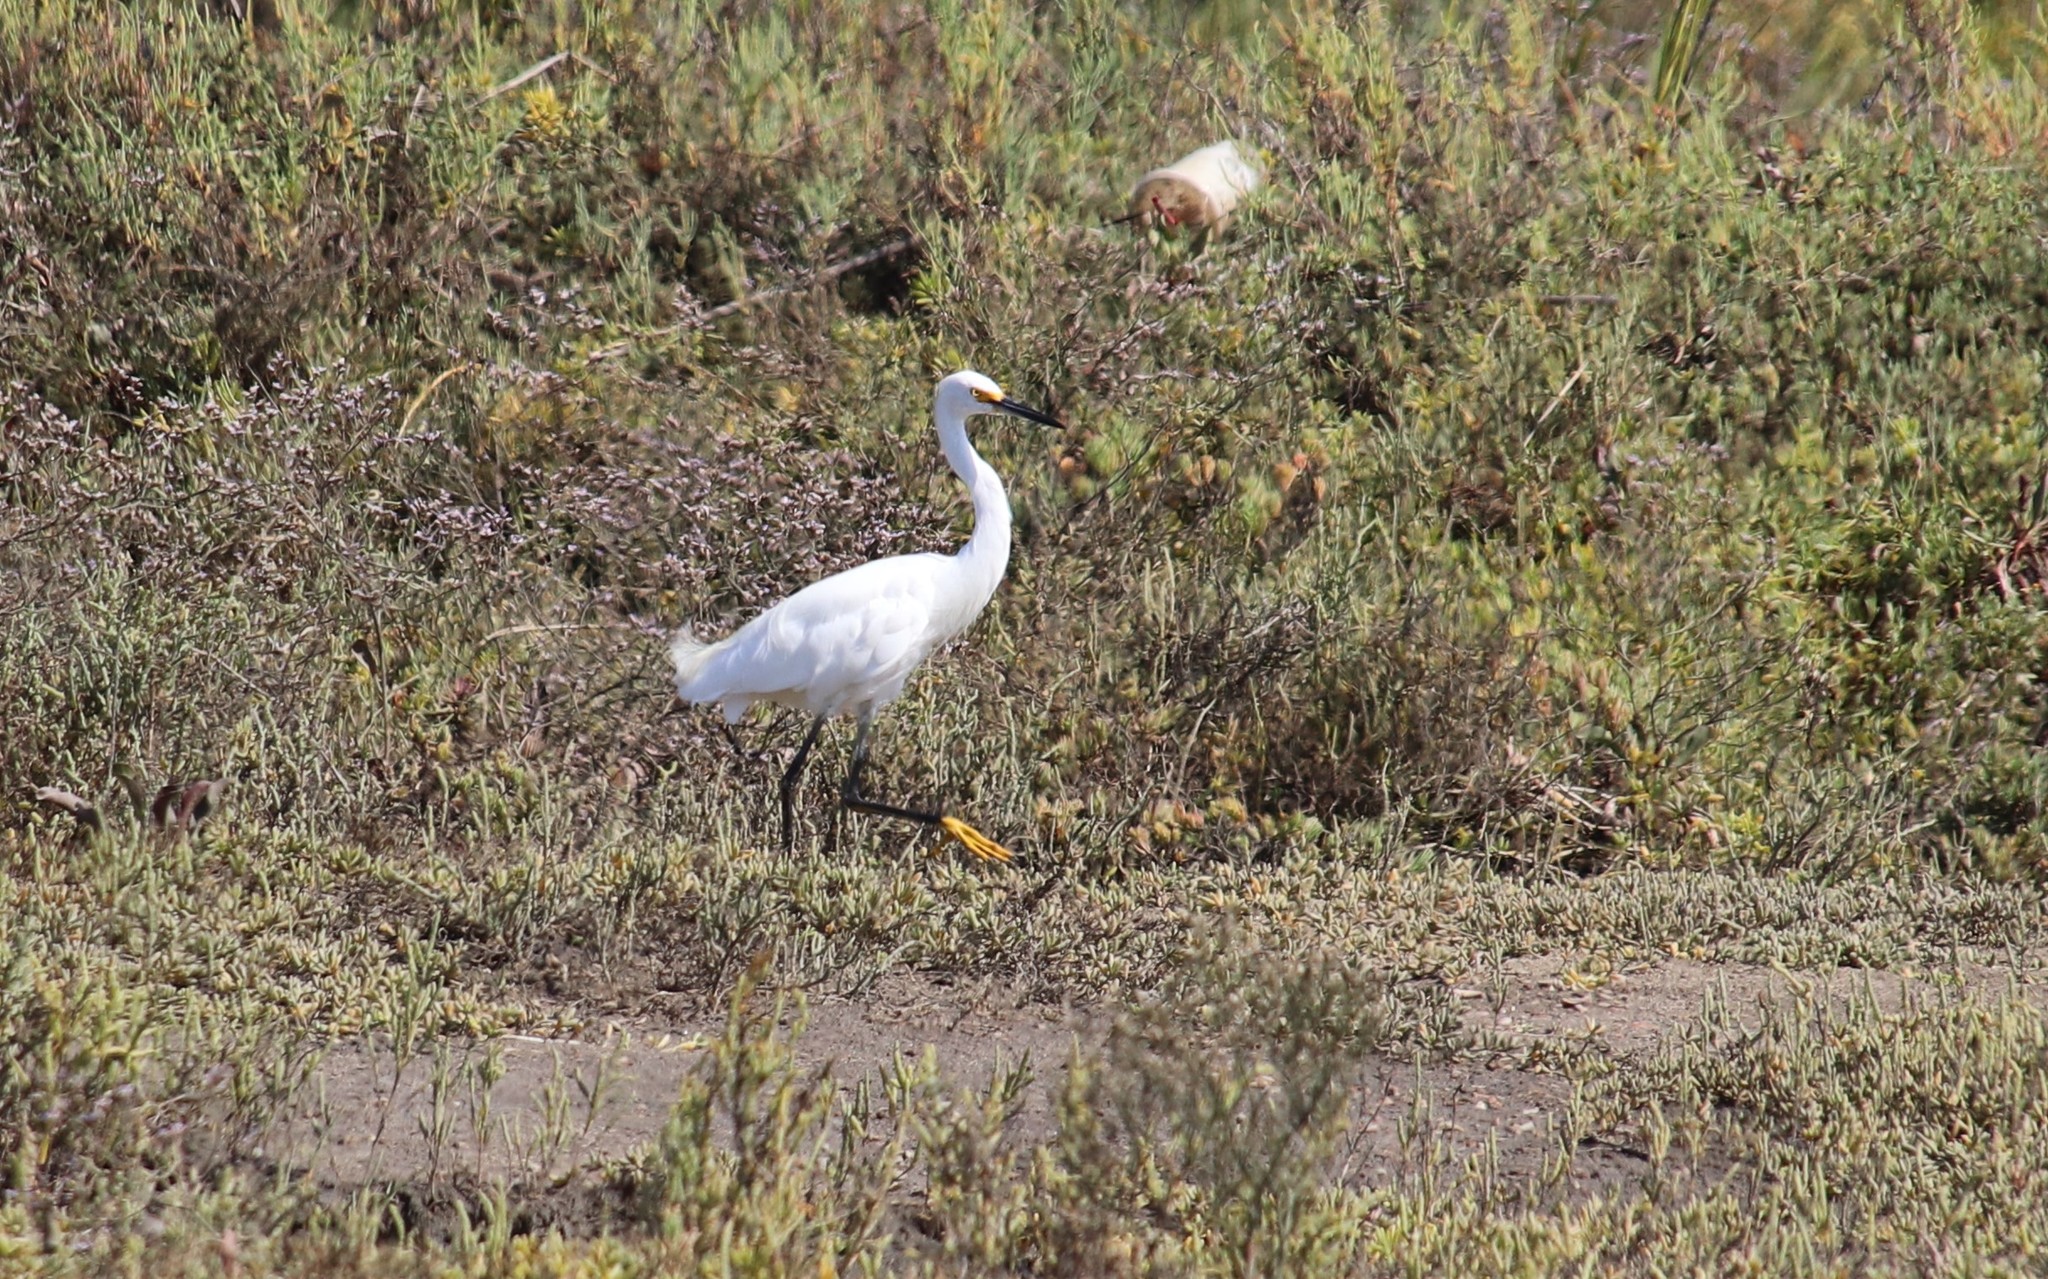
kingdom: Animalia
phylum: Chordata
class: Aves
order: Pelecaniformes
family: Ardeidae
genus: Egretta
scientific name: Egretta thula
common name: Snowy egret
